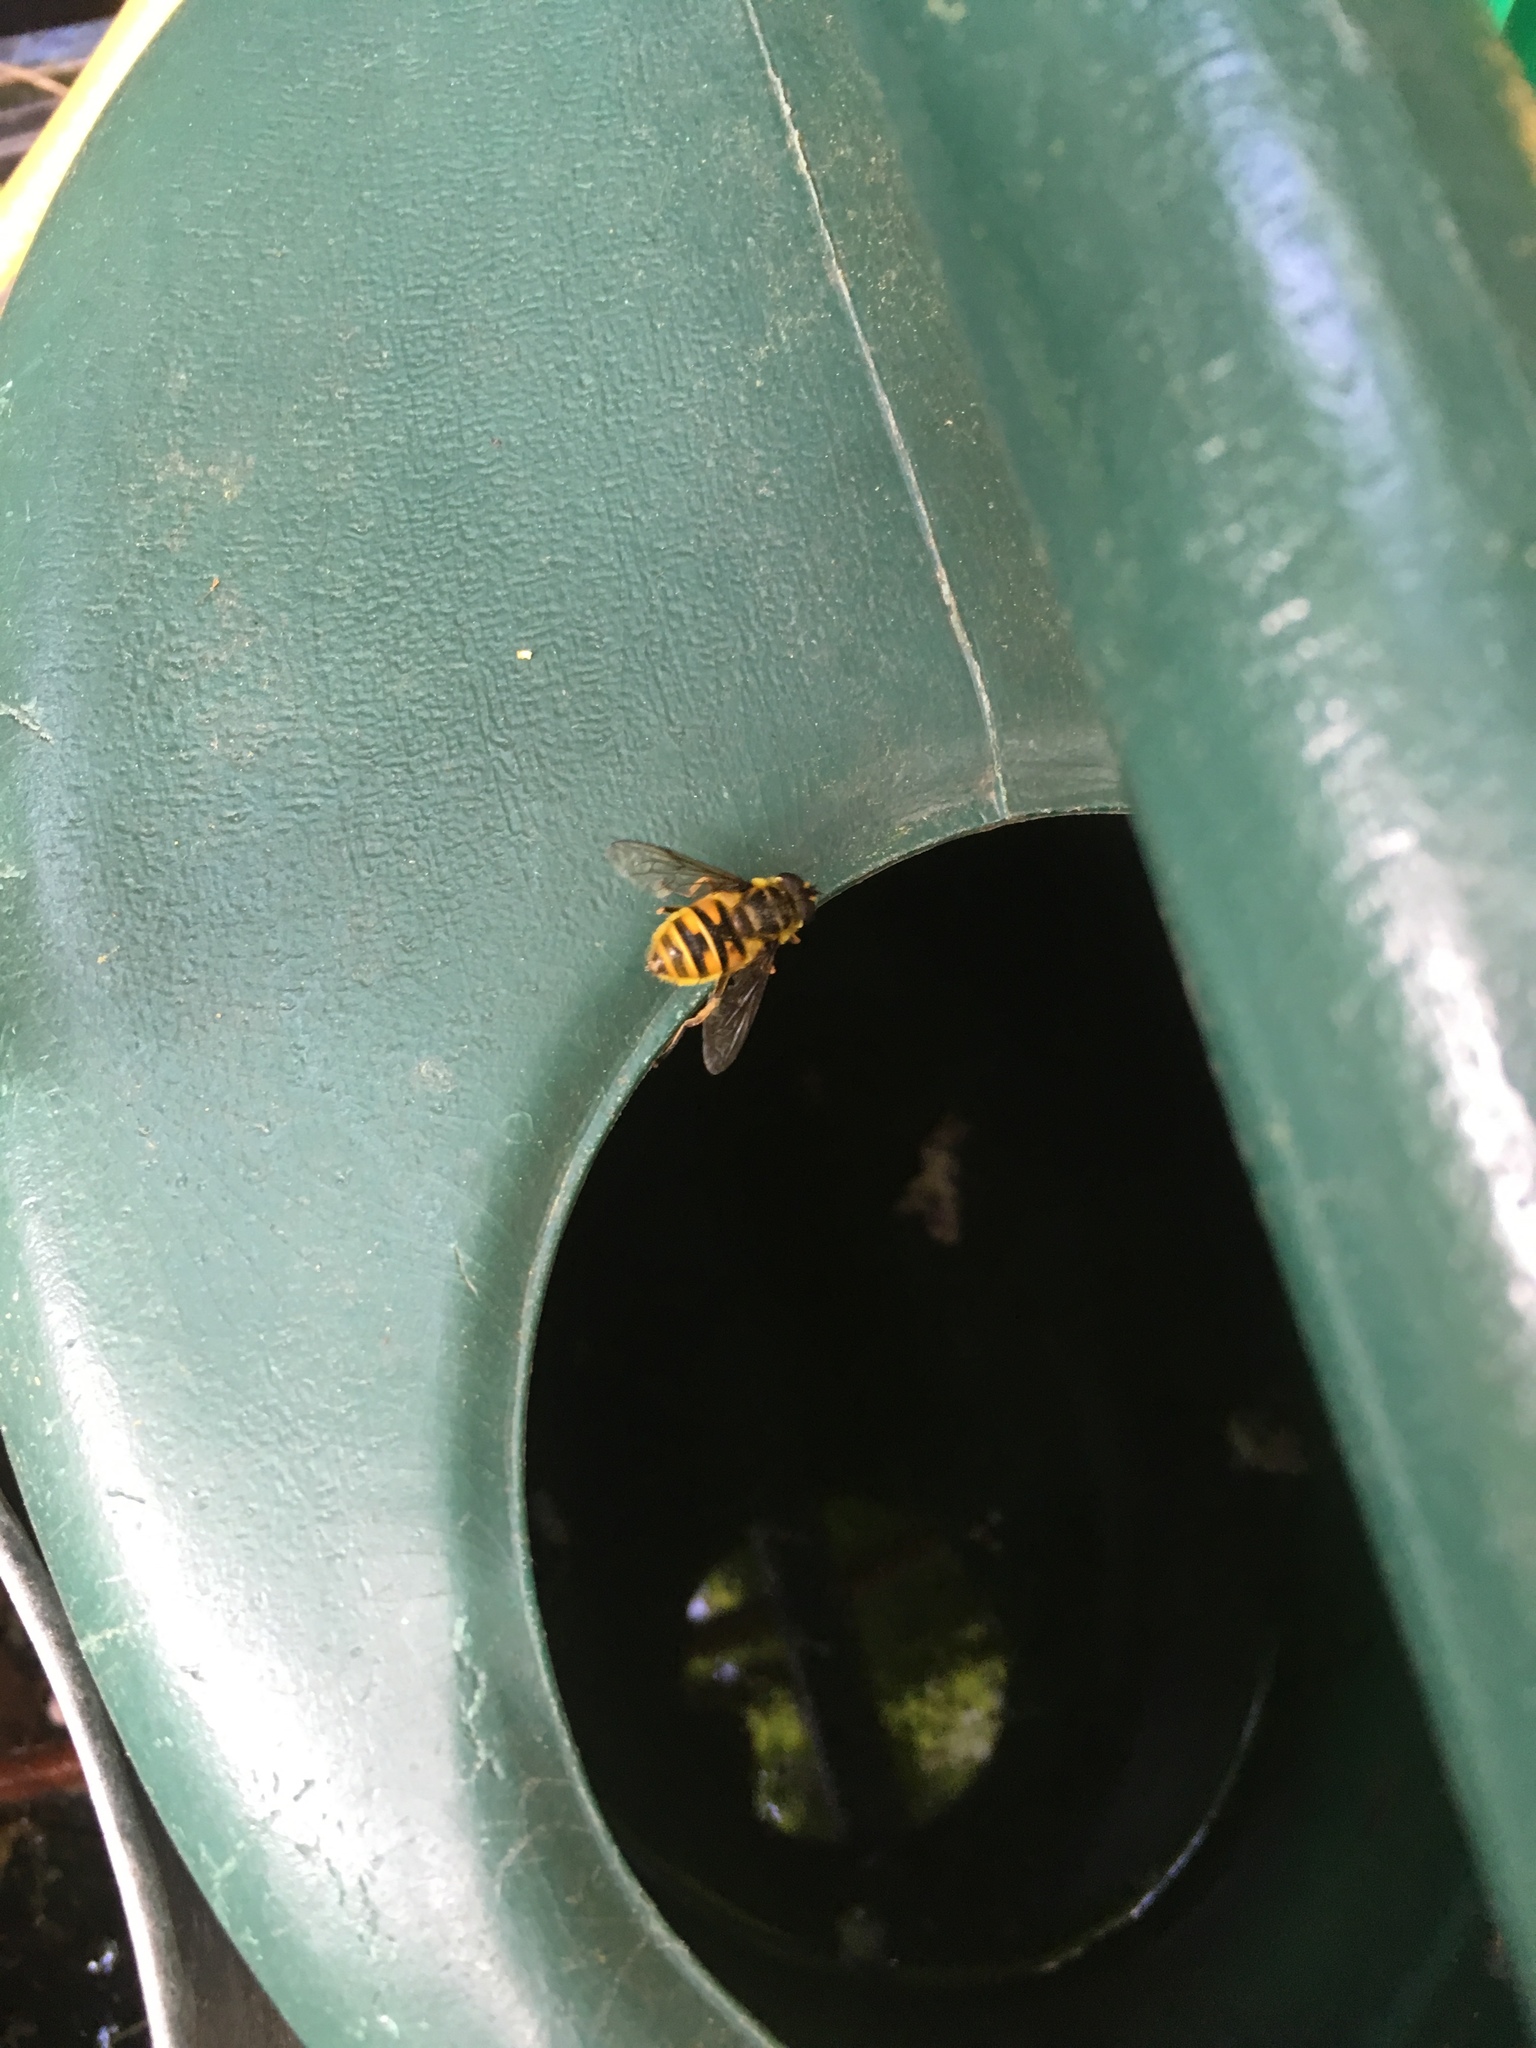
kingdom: Animalia
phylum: Arthropoda
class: Insecta
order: Diptera
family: Syrphidae
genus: Myathropa
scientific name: Myathropa florea
